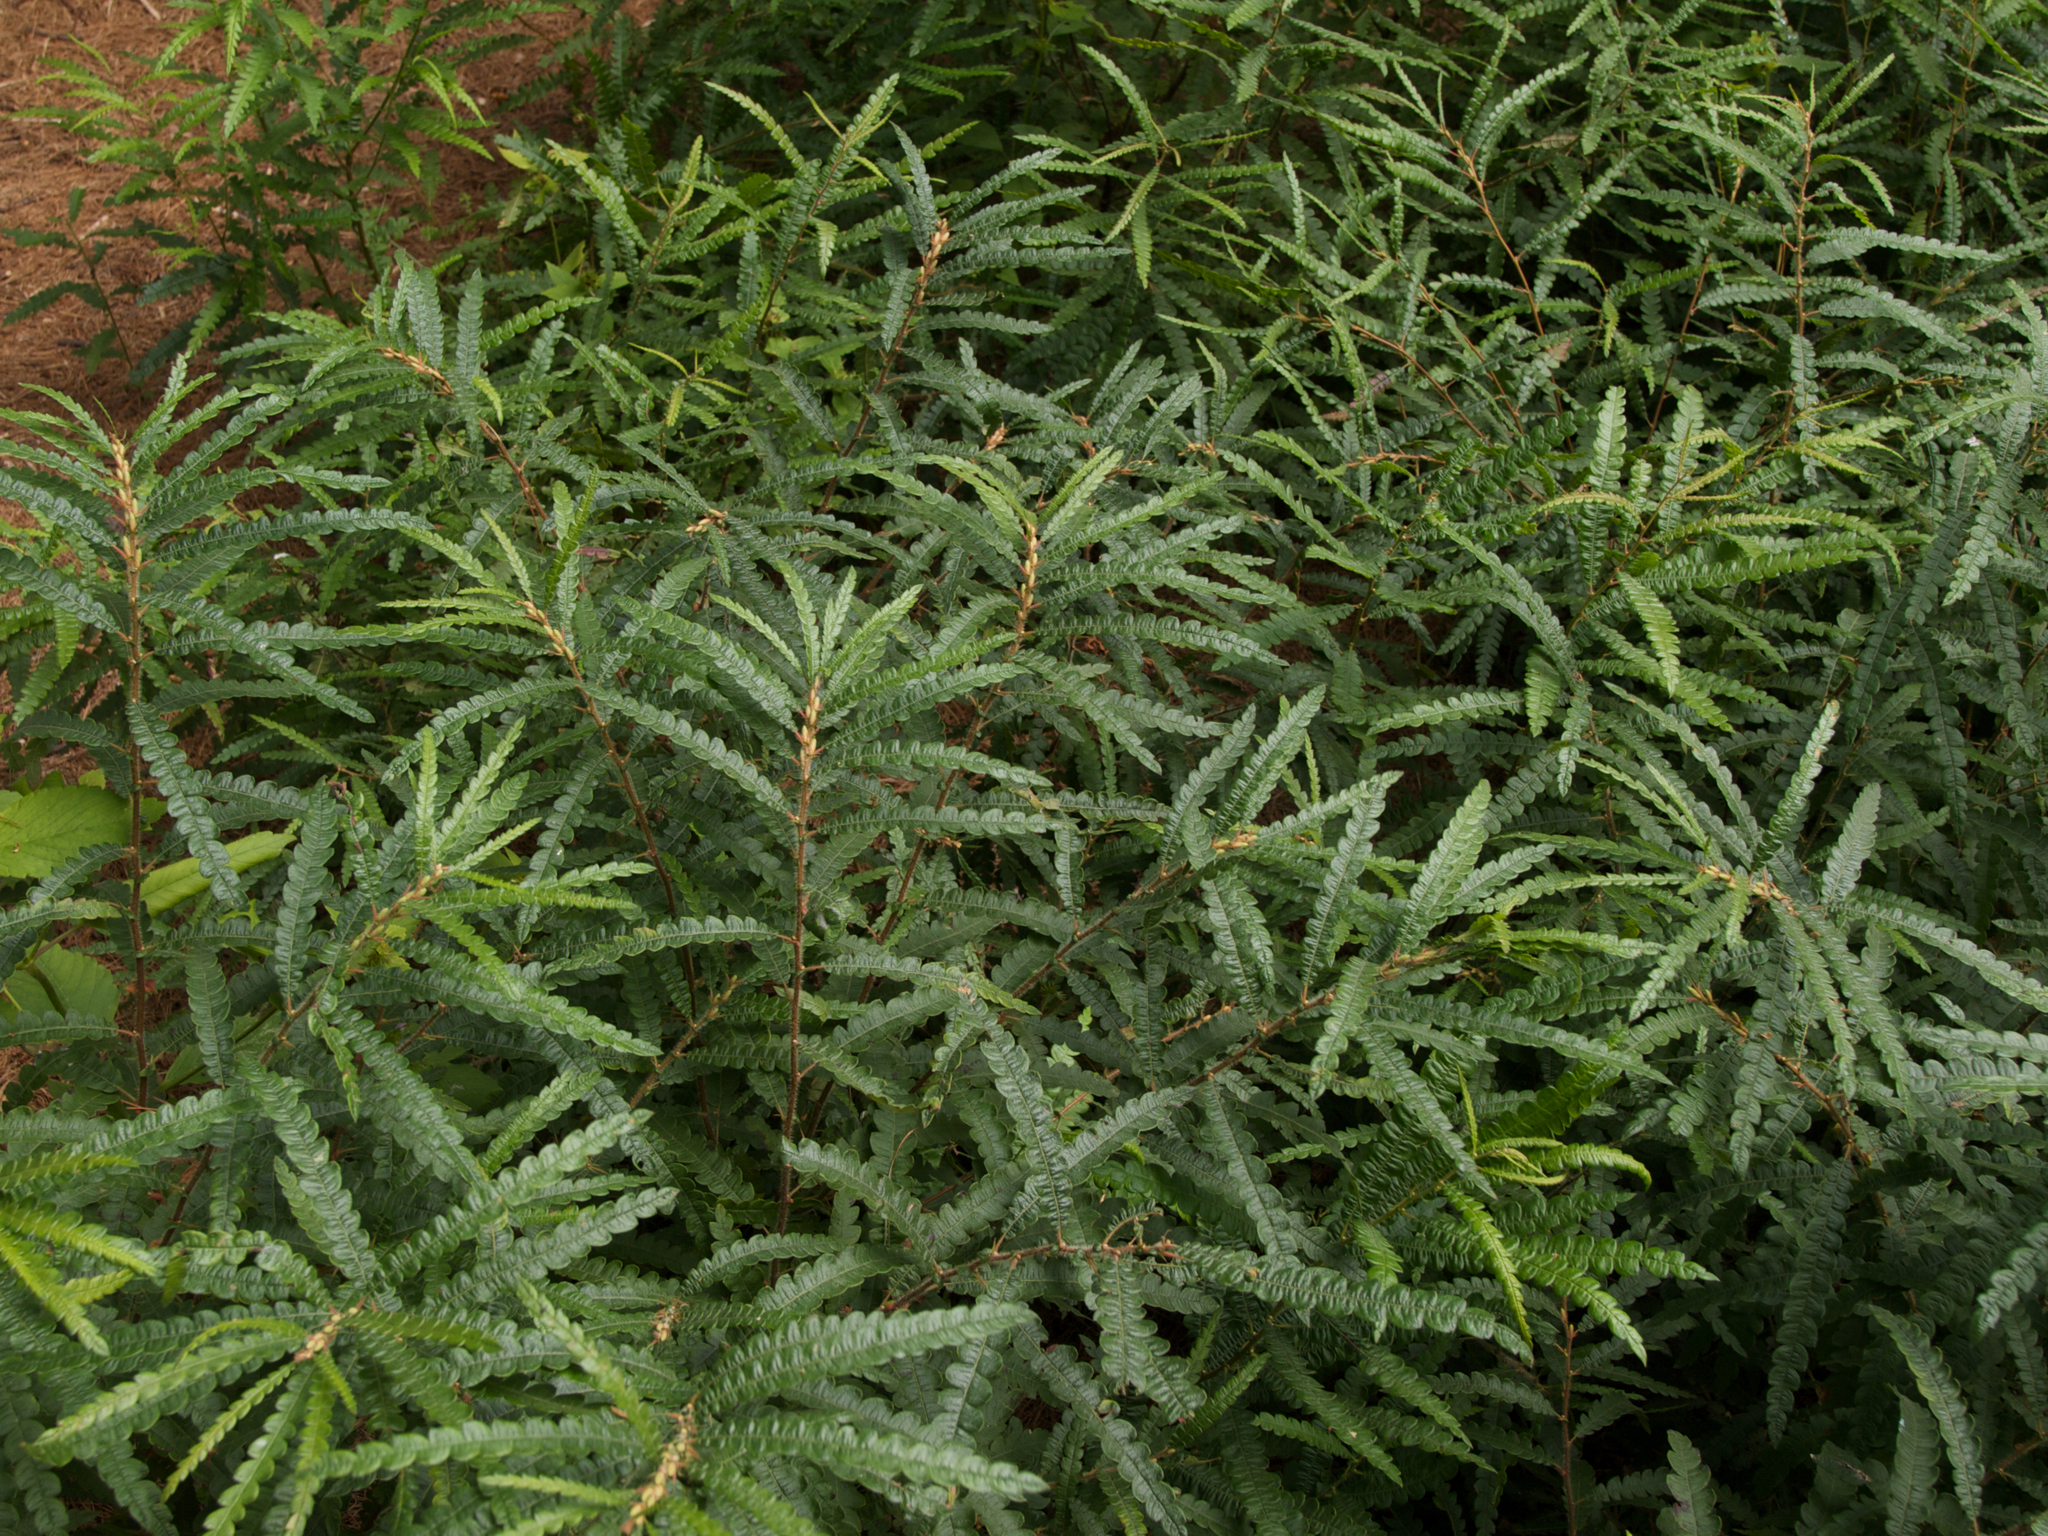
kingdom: Plantae
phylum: Tracheophyta
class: Magnoliopsida
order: Fagales
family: Myricaceae
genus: Comptonia
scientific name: Comptonia peregrina
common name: Sweet-fern
